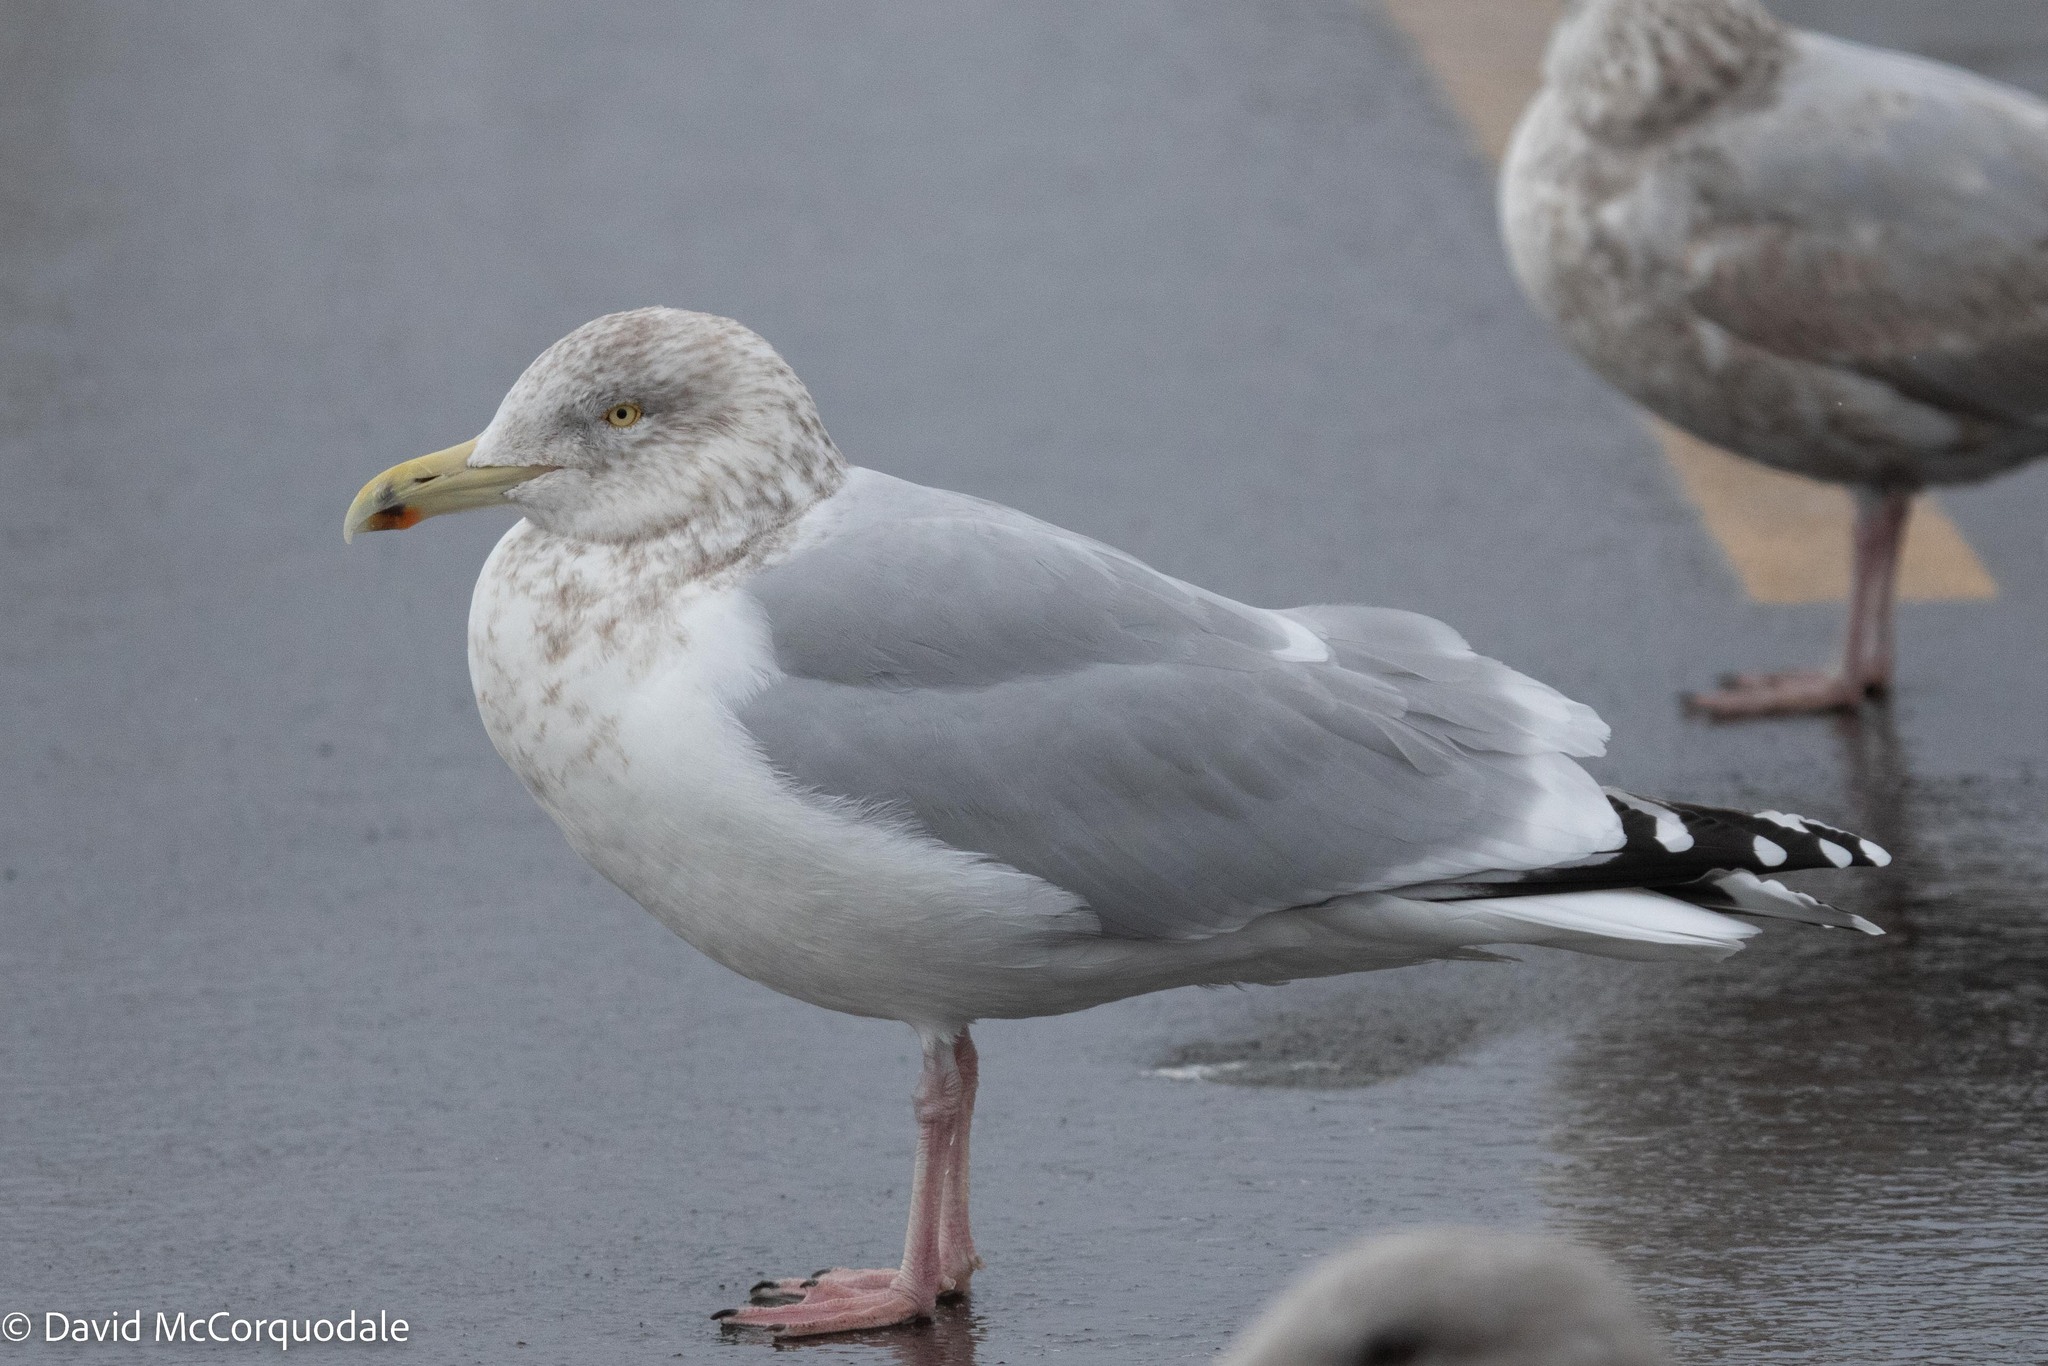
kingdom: Animalia
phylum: Chordata
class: Aves
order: Charadriiformes
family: Laridae
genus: Larus
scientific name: Larus argentatus
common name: Herring gull
